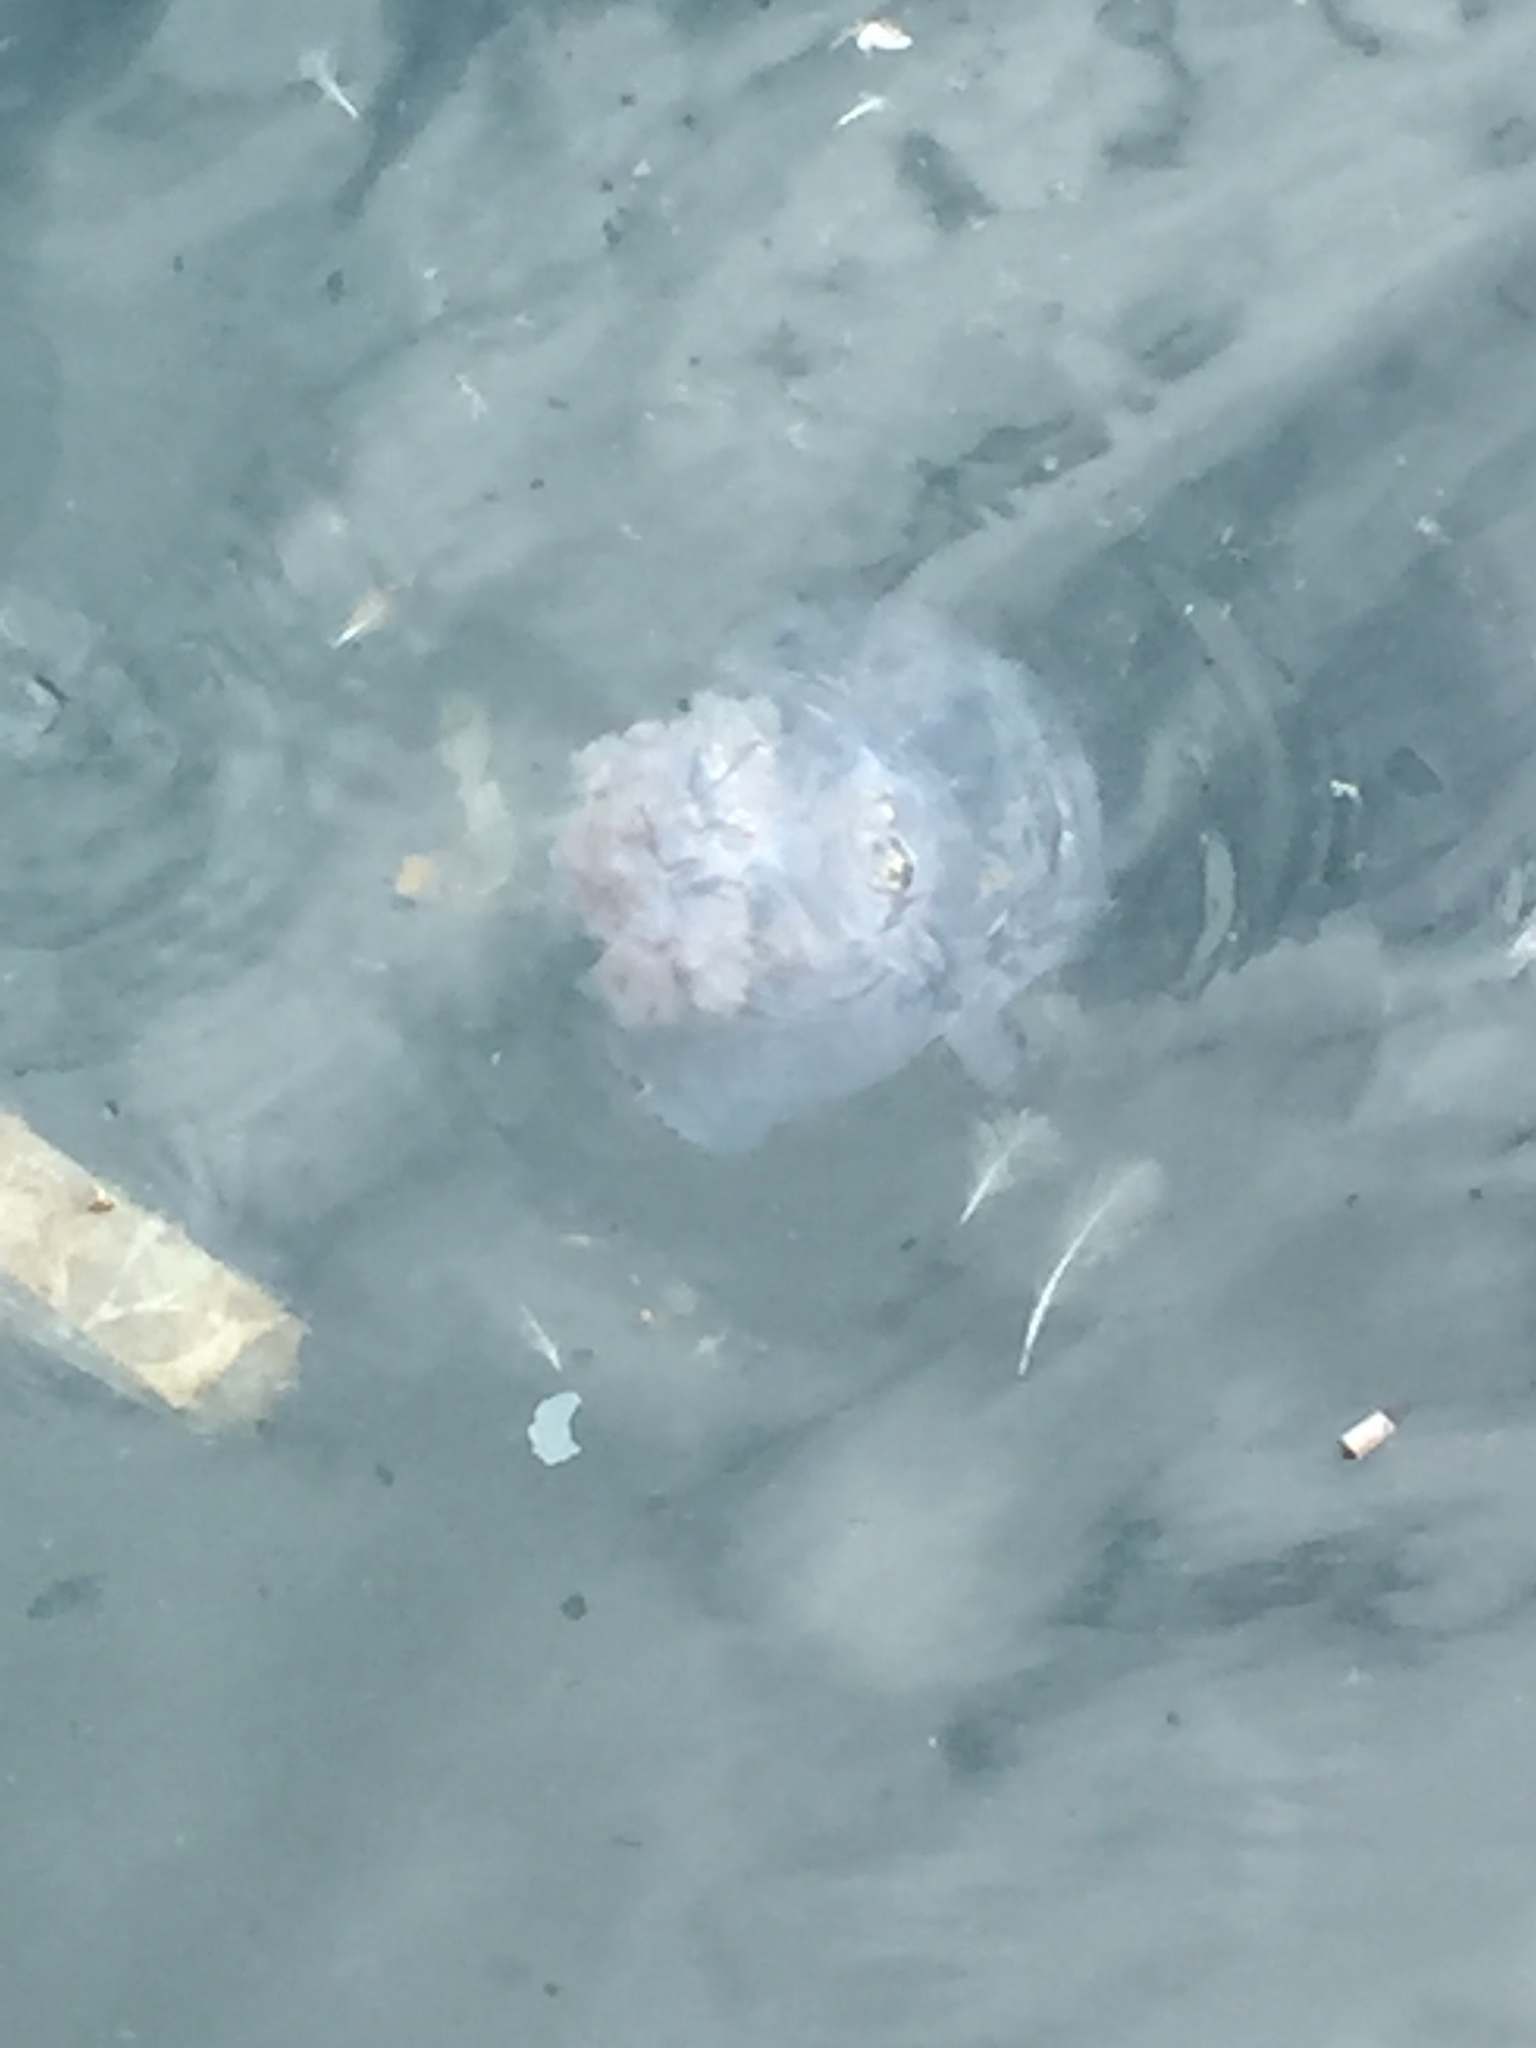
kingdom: Animalia
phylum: Cnidaria
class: Scyphozoa
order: Rhizostomeae
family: Rhizostomatidae
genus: Rhizostoma
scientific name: Rhizostoma pulmo
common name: Barrel jellyfish
